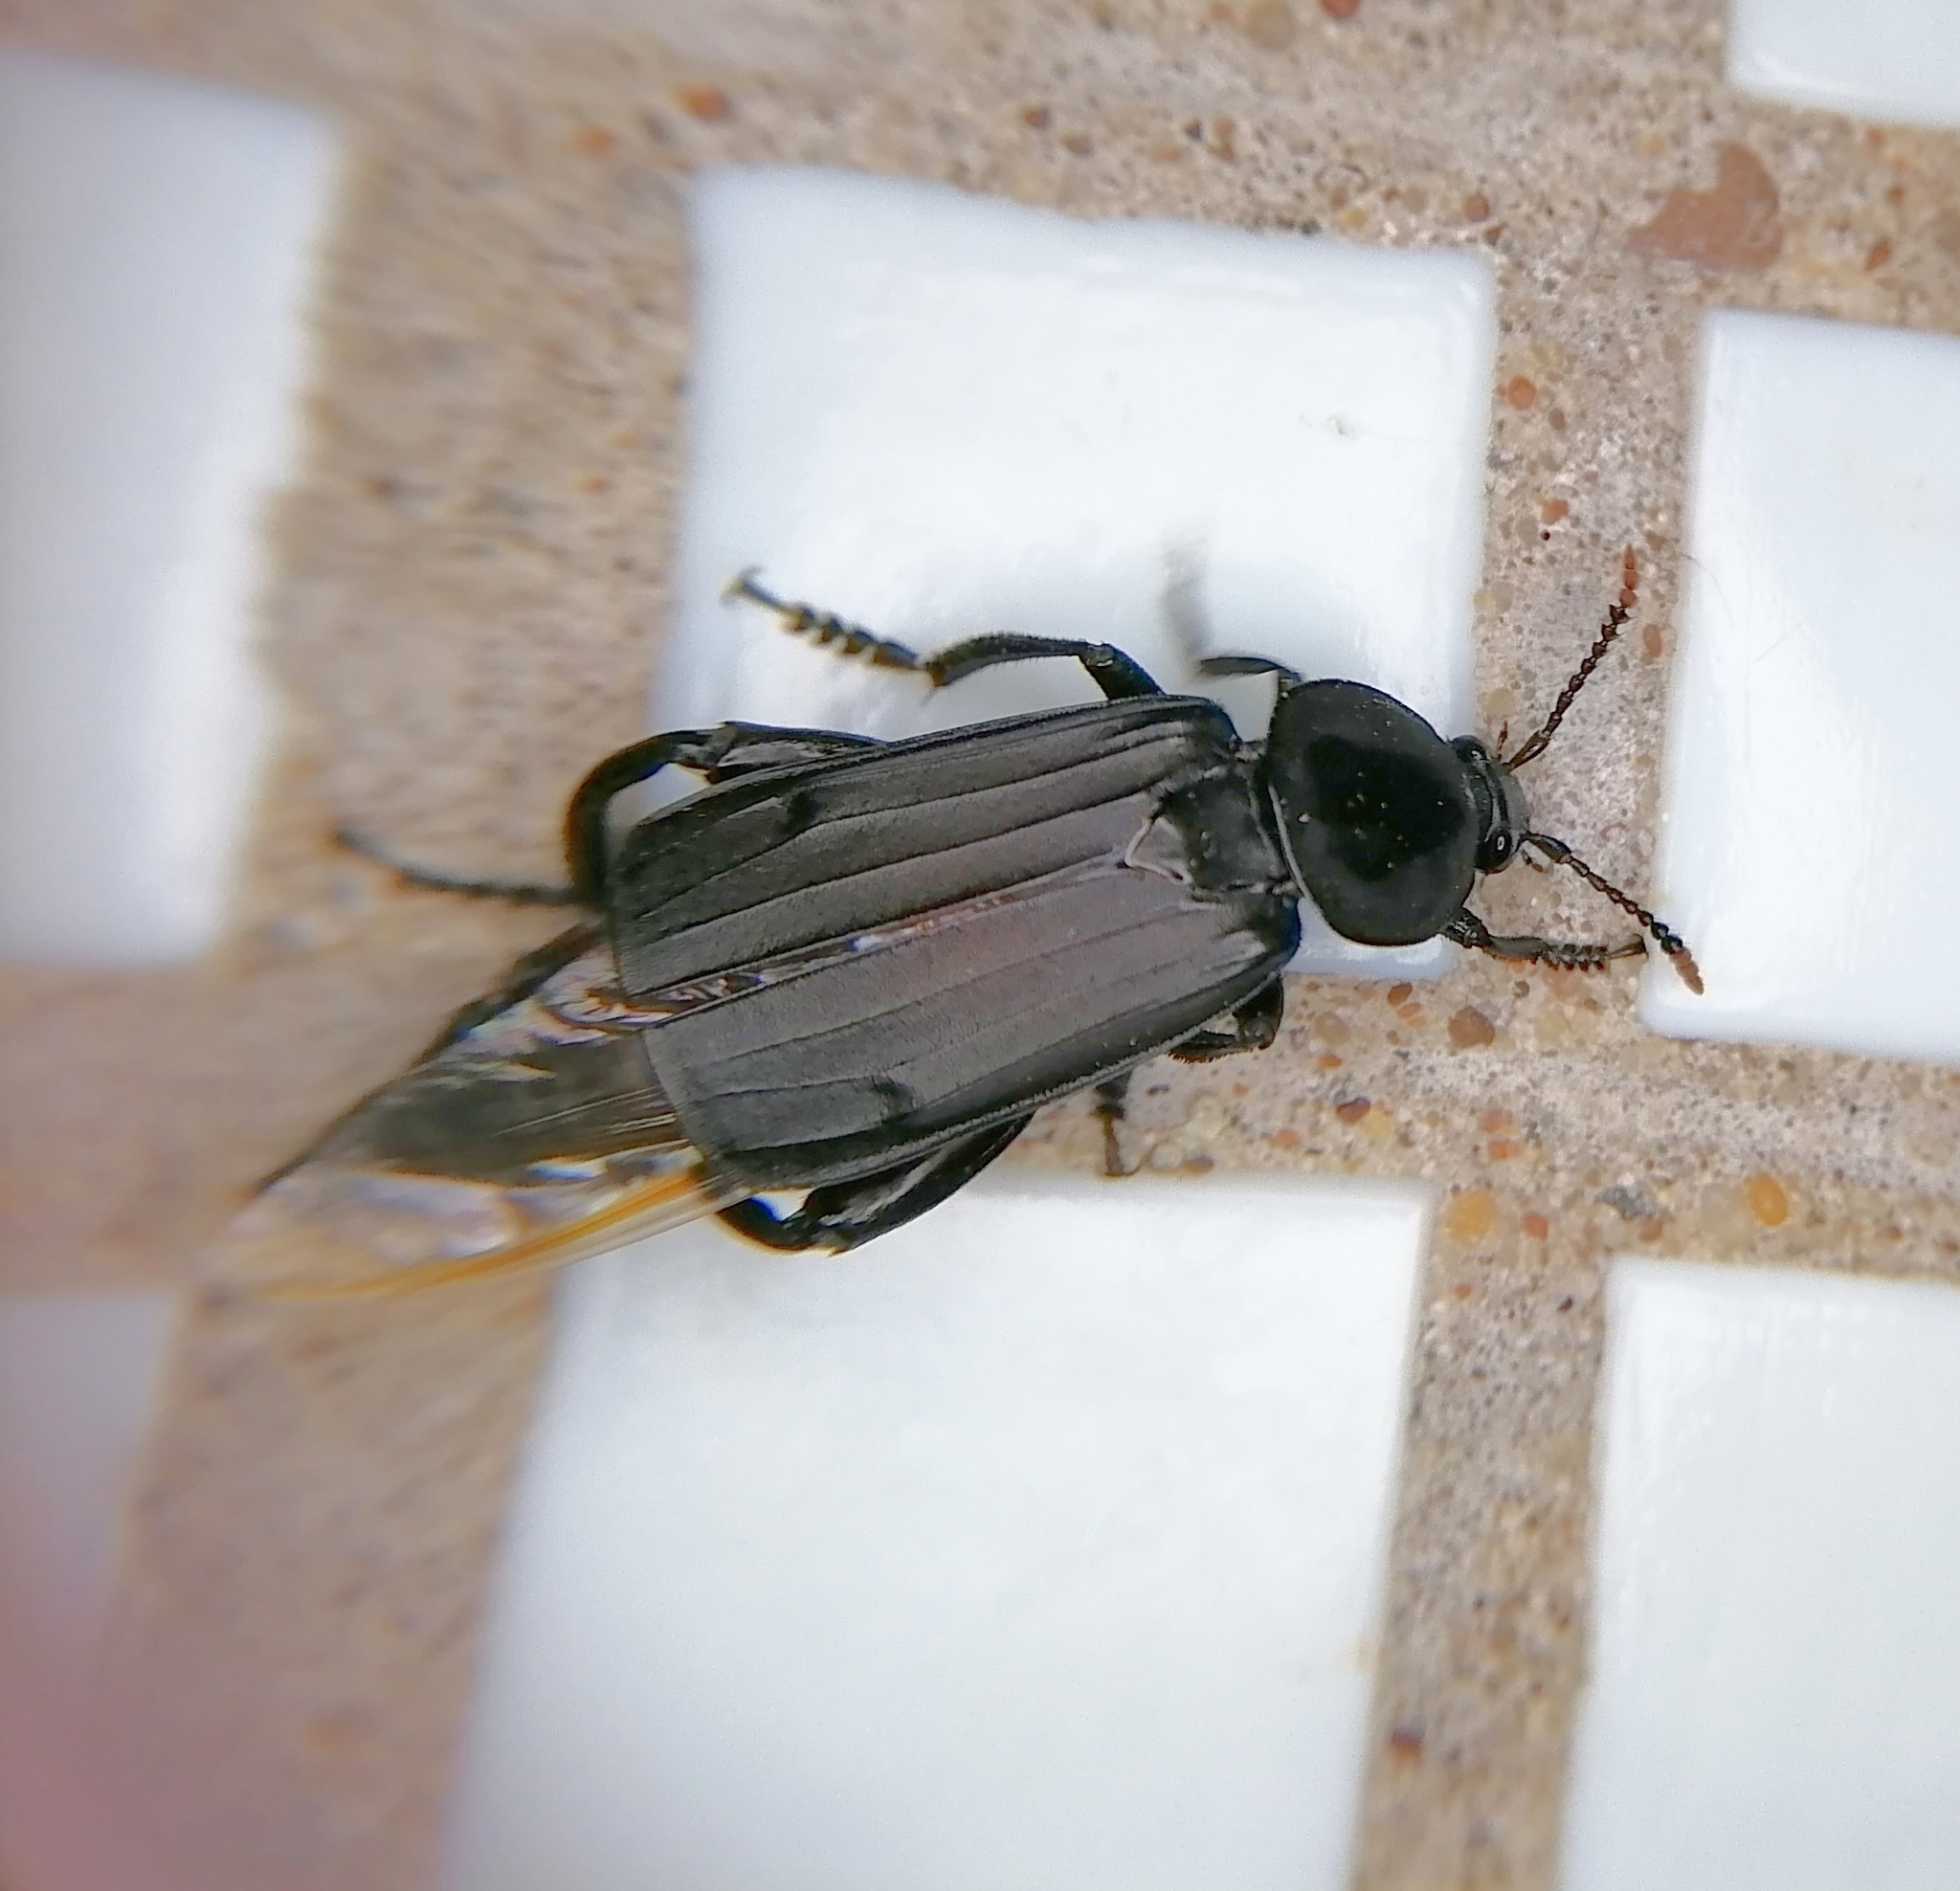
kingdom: Animalia
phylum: Arthropoda
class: Insecta
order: Coleoptera
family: Staphylinidae
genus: Necrodes
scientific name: Necrodes littoralis
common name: Shore sexton beetle
